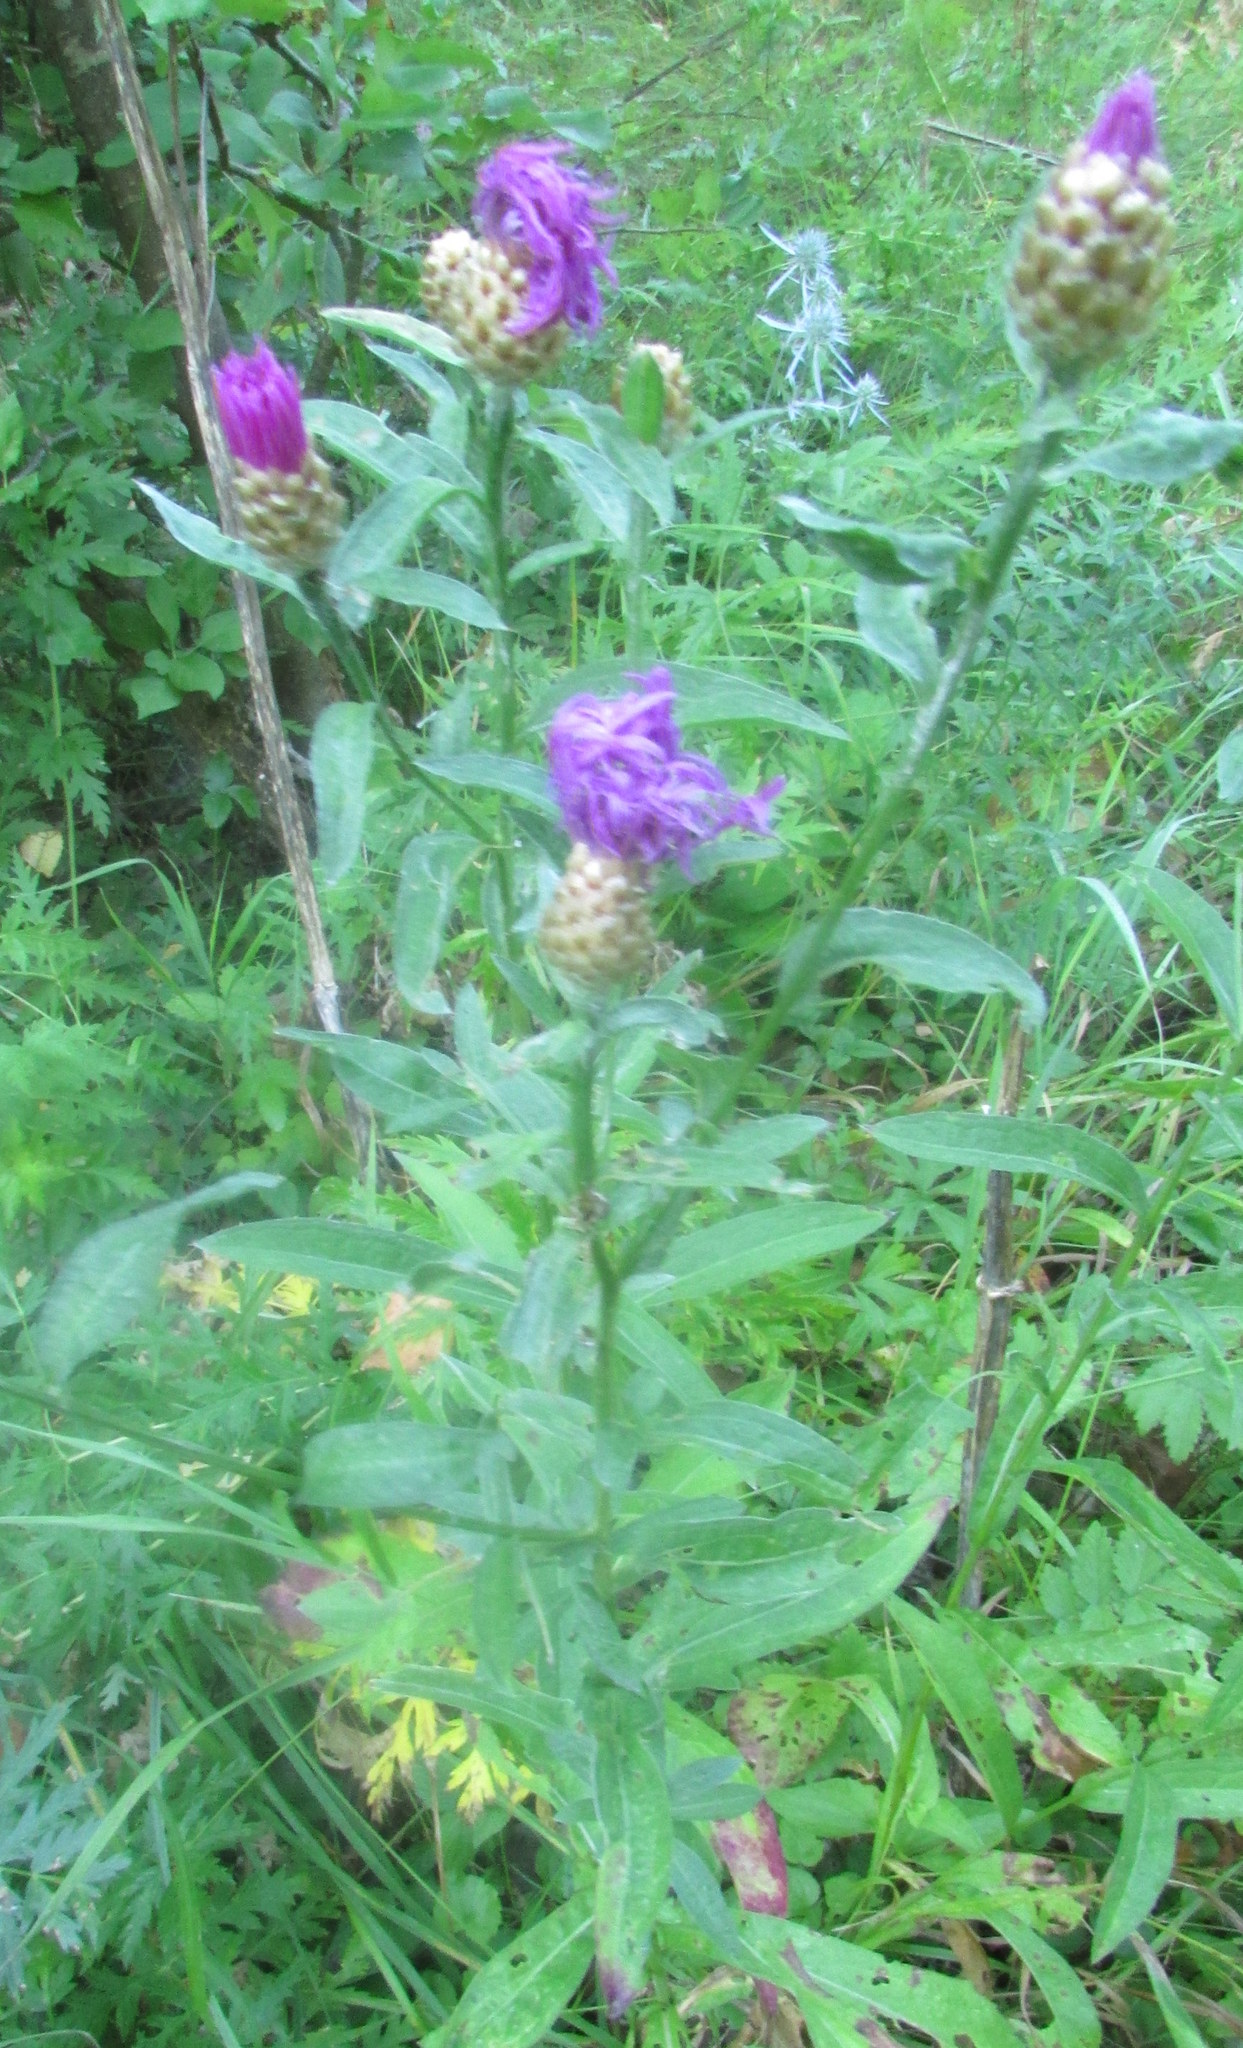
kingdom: Plantae
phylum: Tracheophyta
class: Magnoliopsida
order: Asterales
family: Asteraceae
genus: Centaurea
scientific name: Centaurea jacea
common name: Brown knapweed
